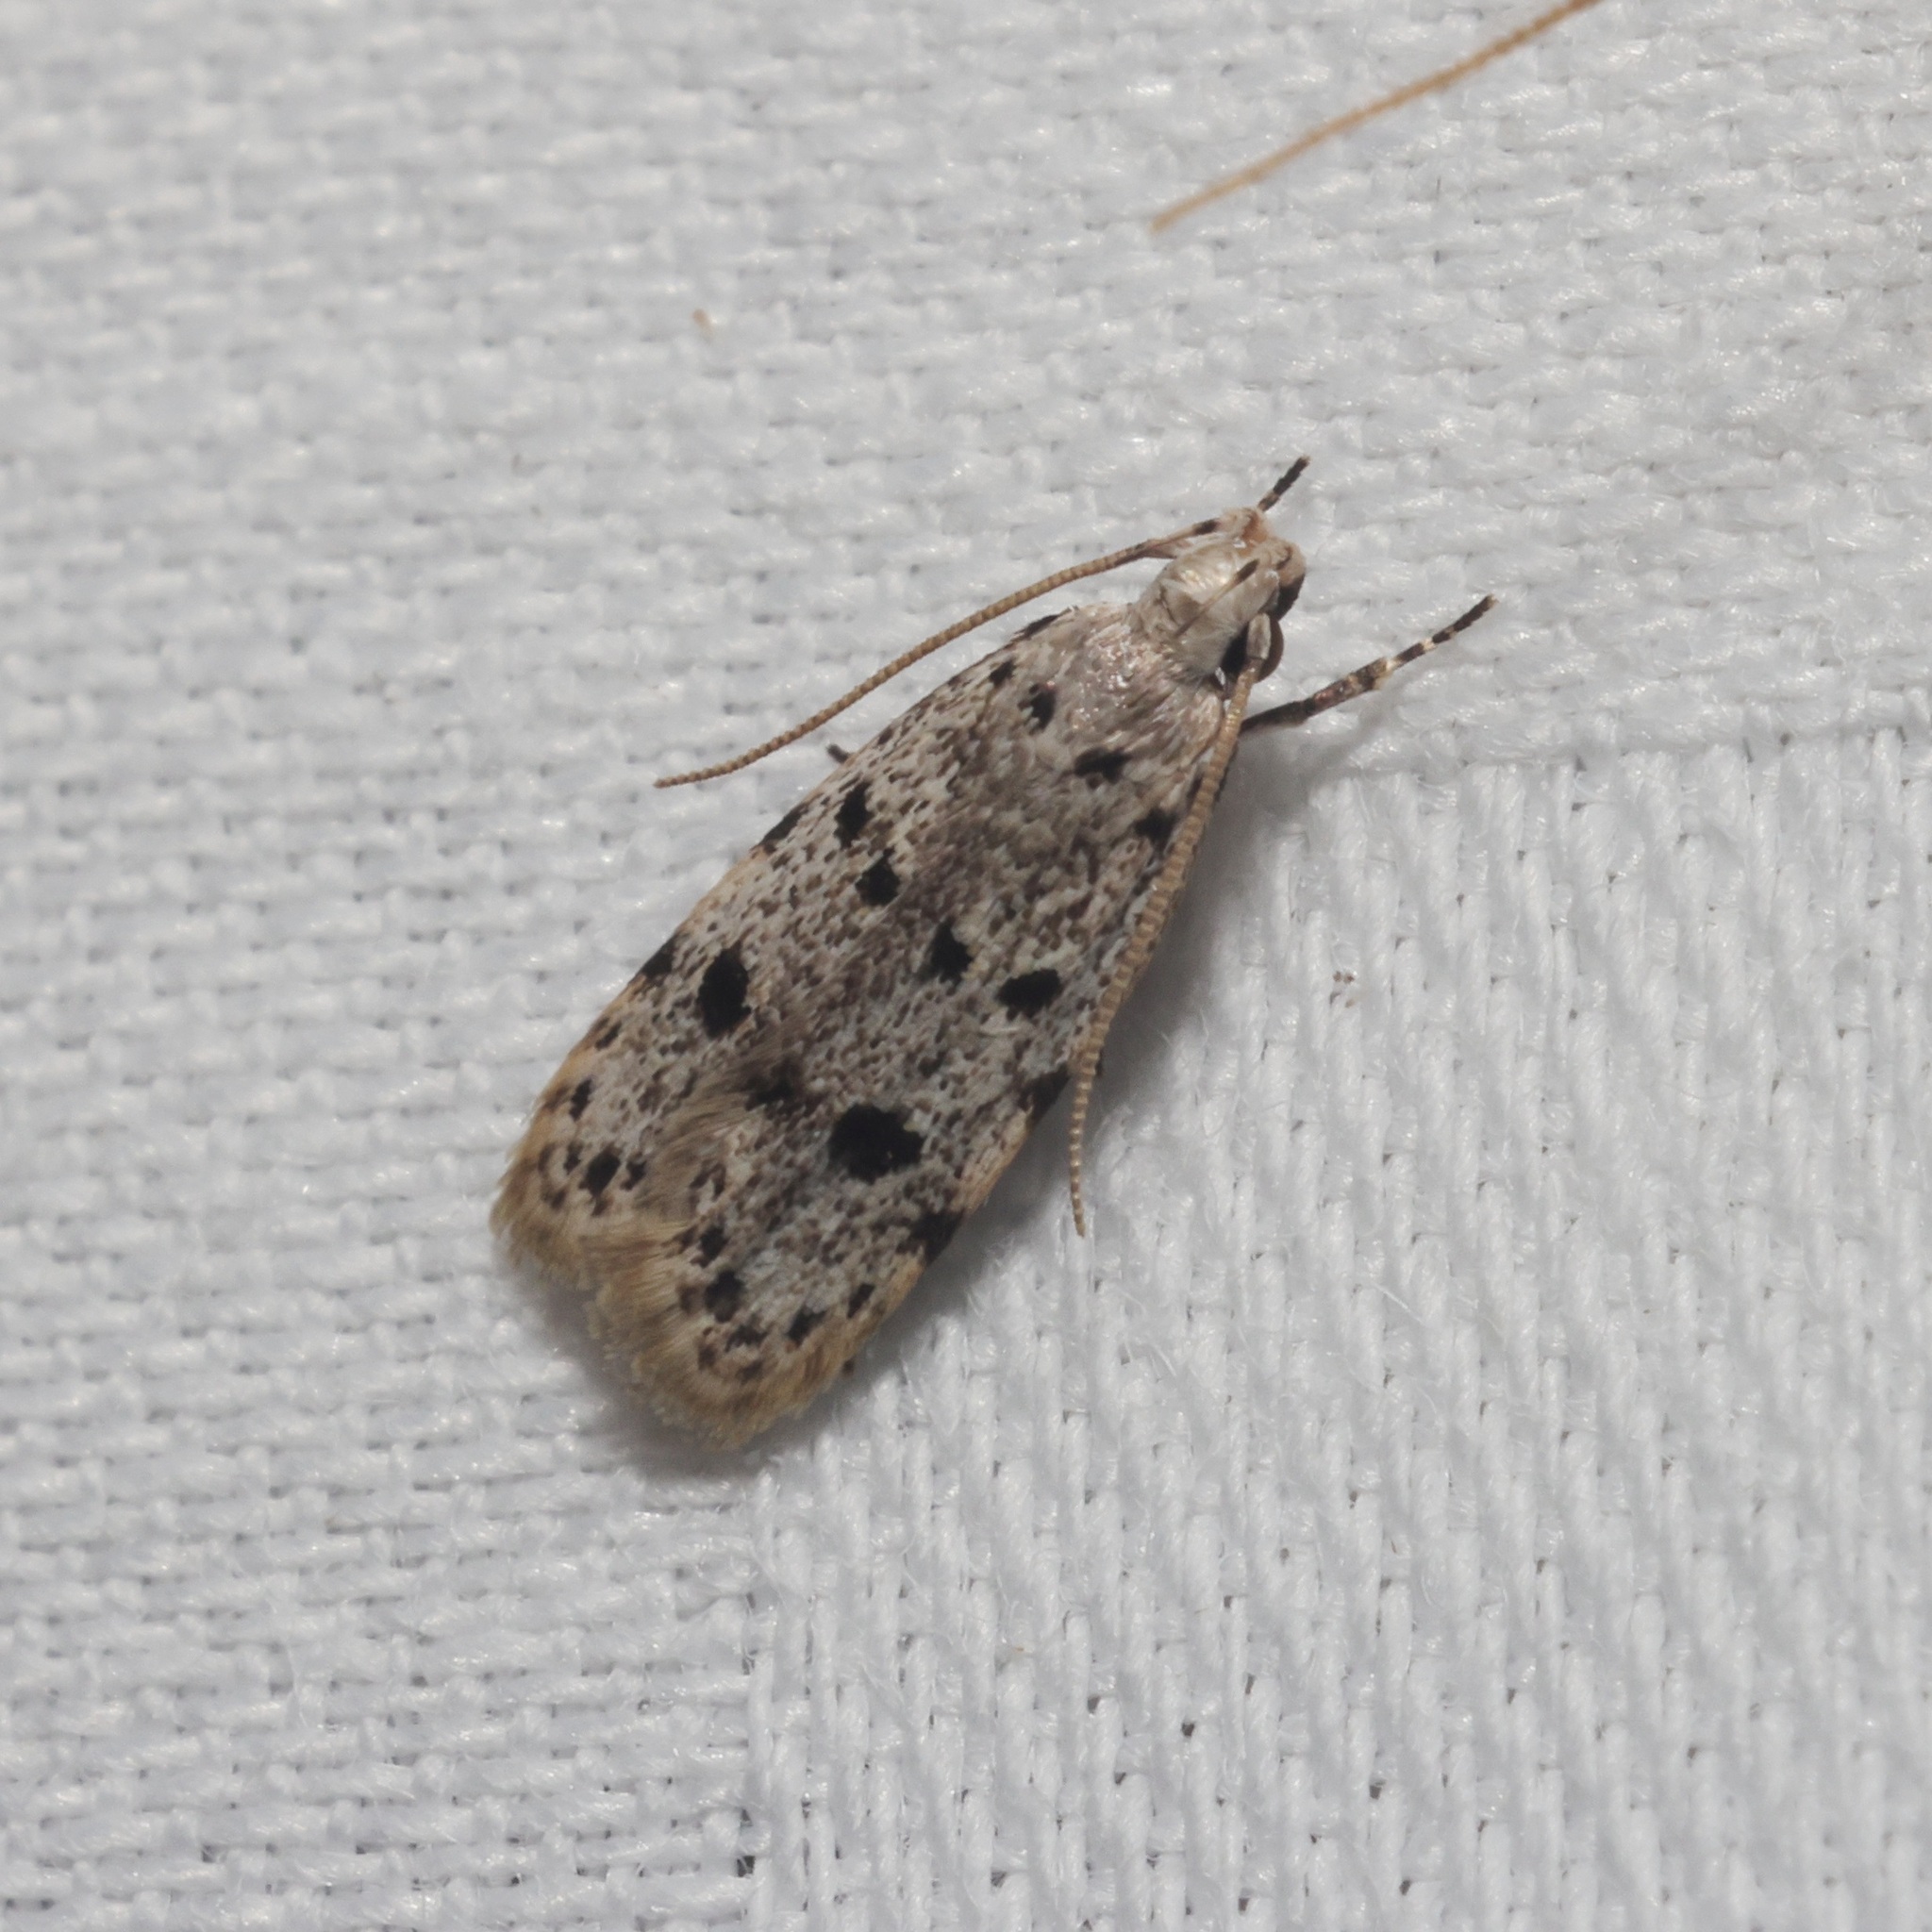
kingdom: Animalia
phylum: Arthropoda
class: Insecta
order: Lepidoptera
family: Autostichidae
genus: Autosticha
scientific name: Autosticha calceata
